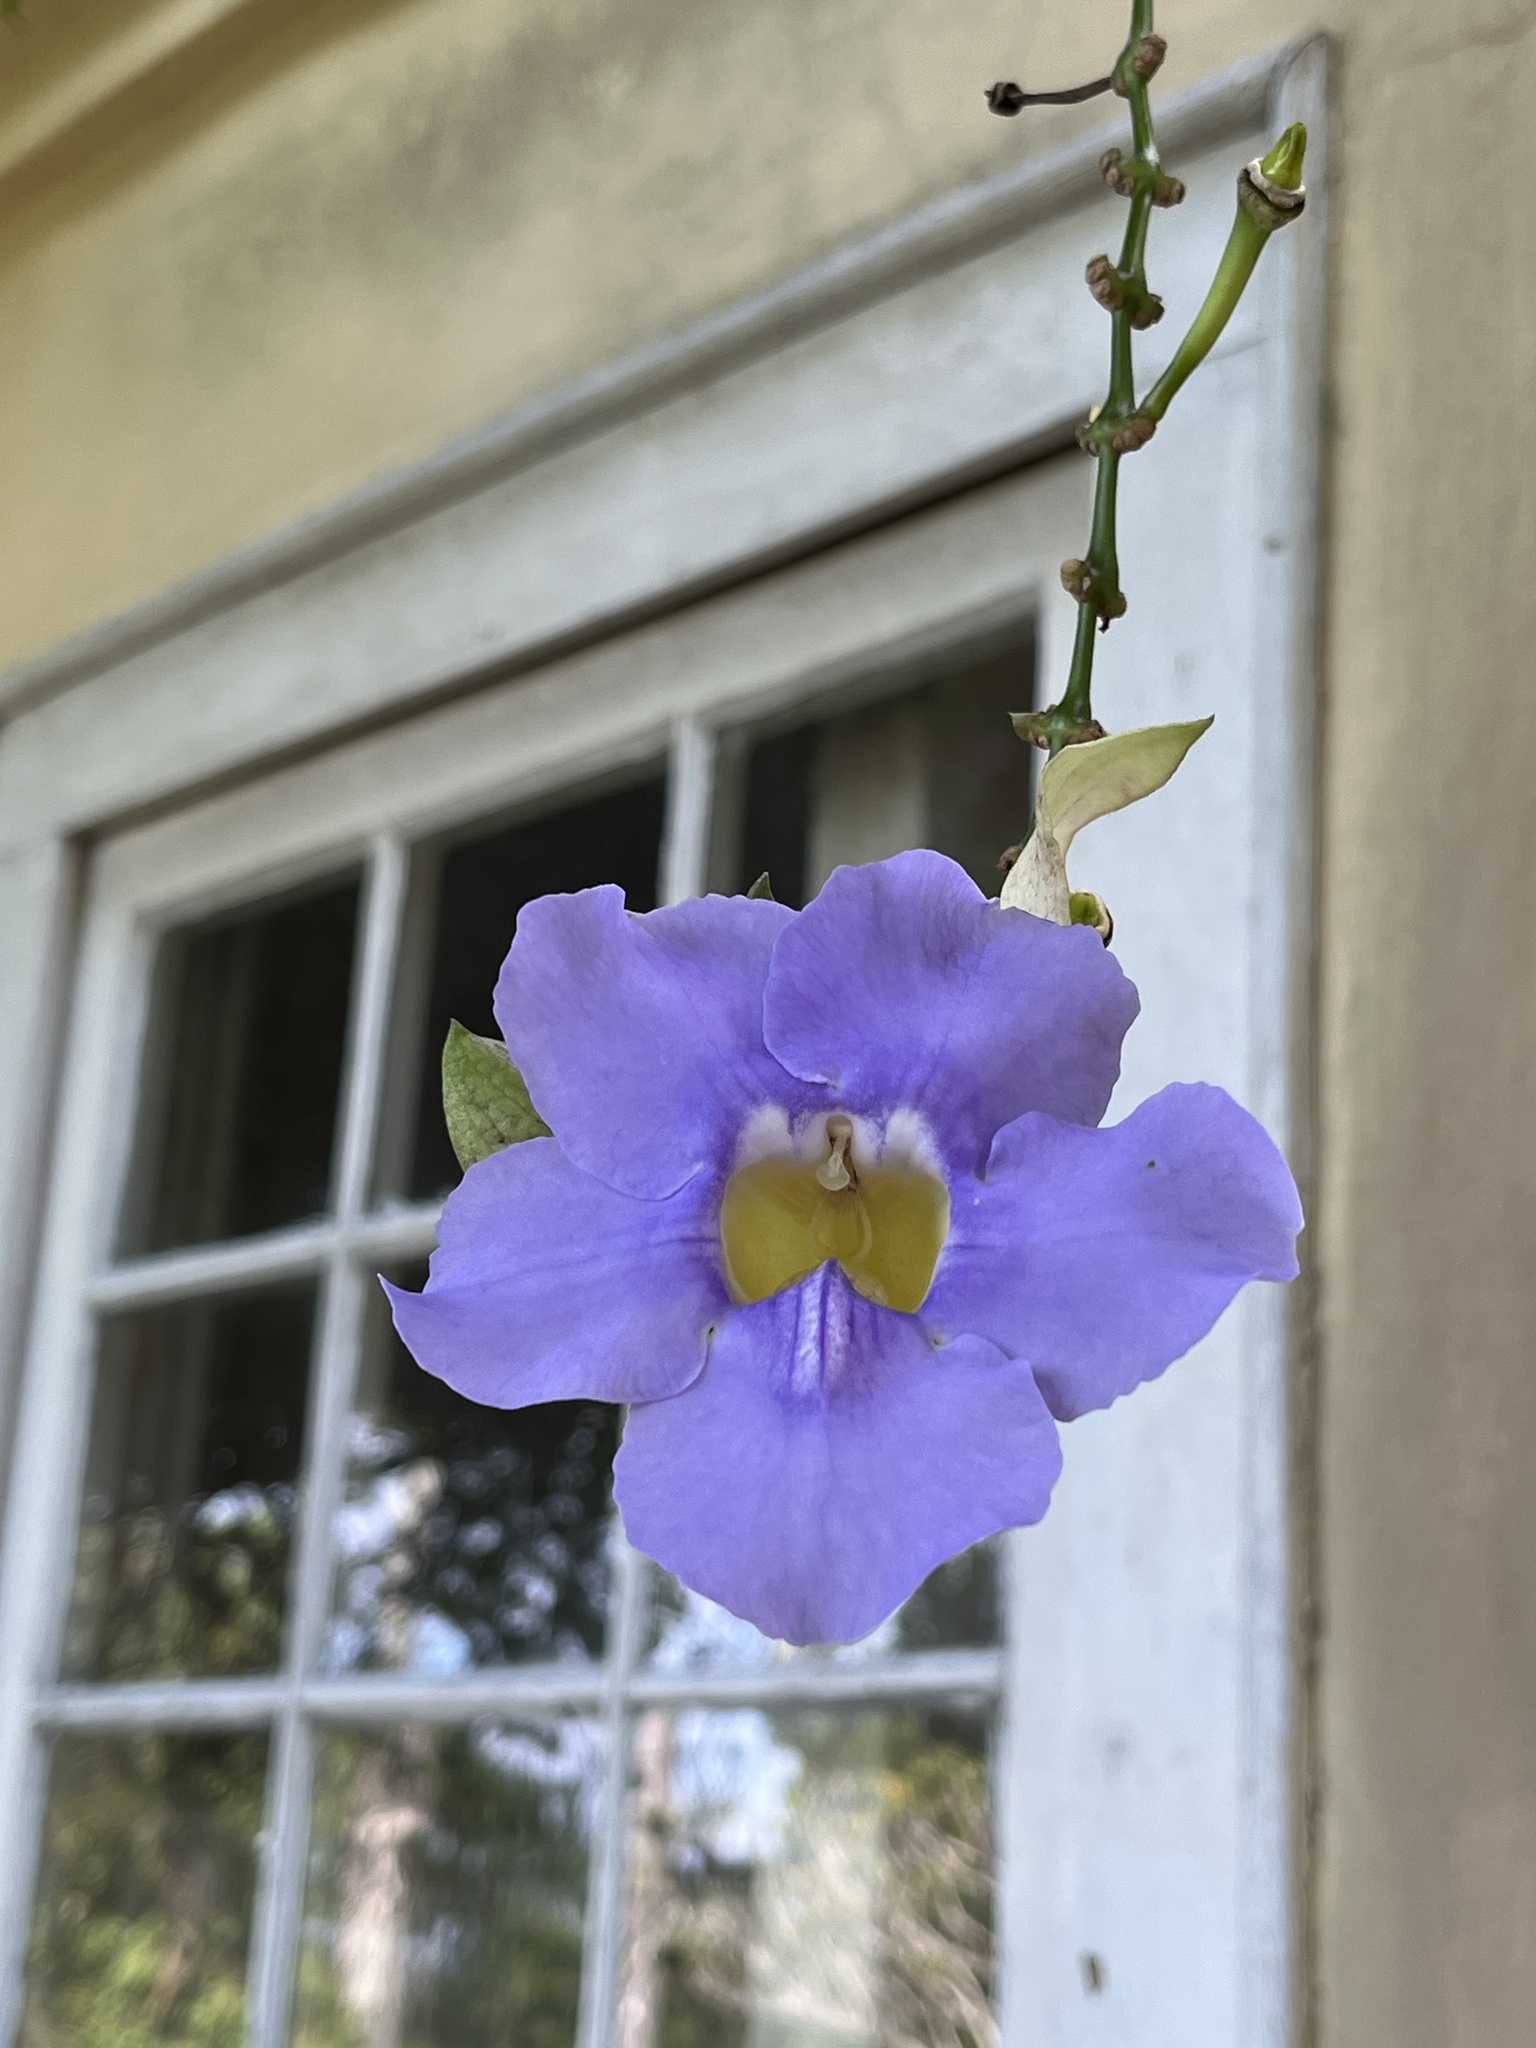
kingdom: Plantae
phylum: Tracheophyta
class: Magnoliopsida
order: Lamiales
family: Acanthaceae
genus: Thunbergia
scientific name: Thunbergia grandiflora
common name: Bengal trumpet
